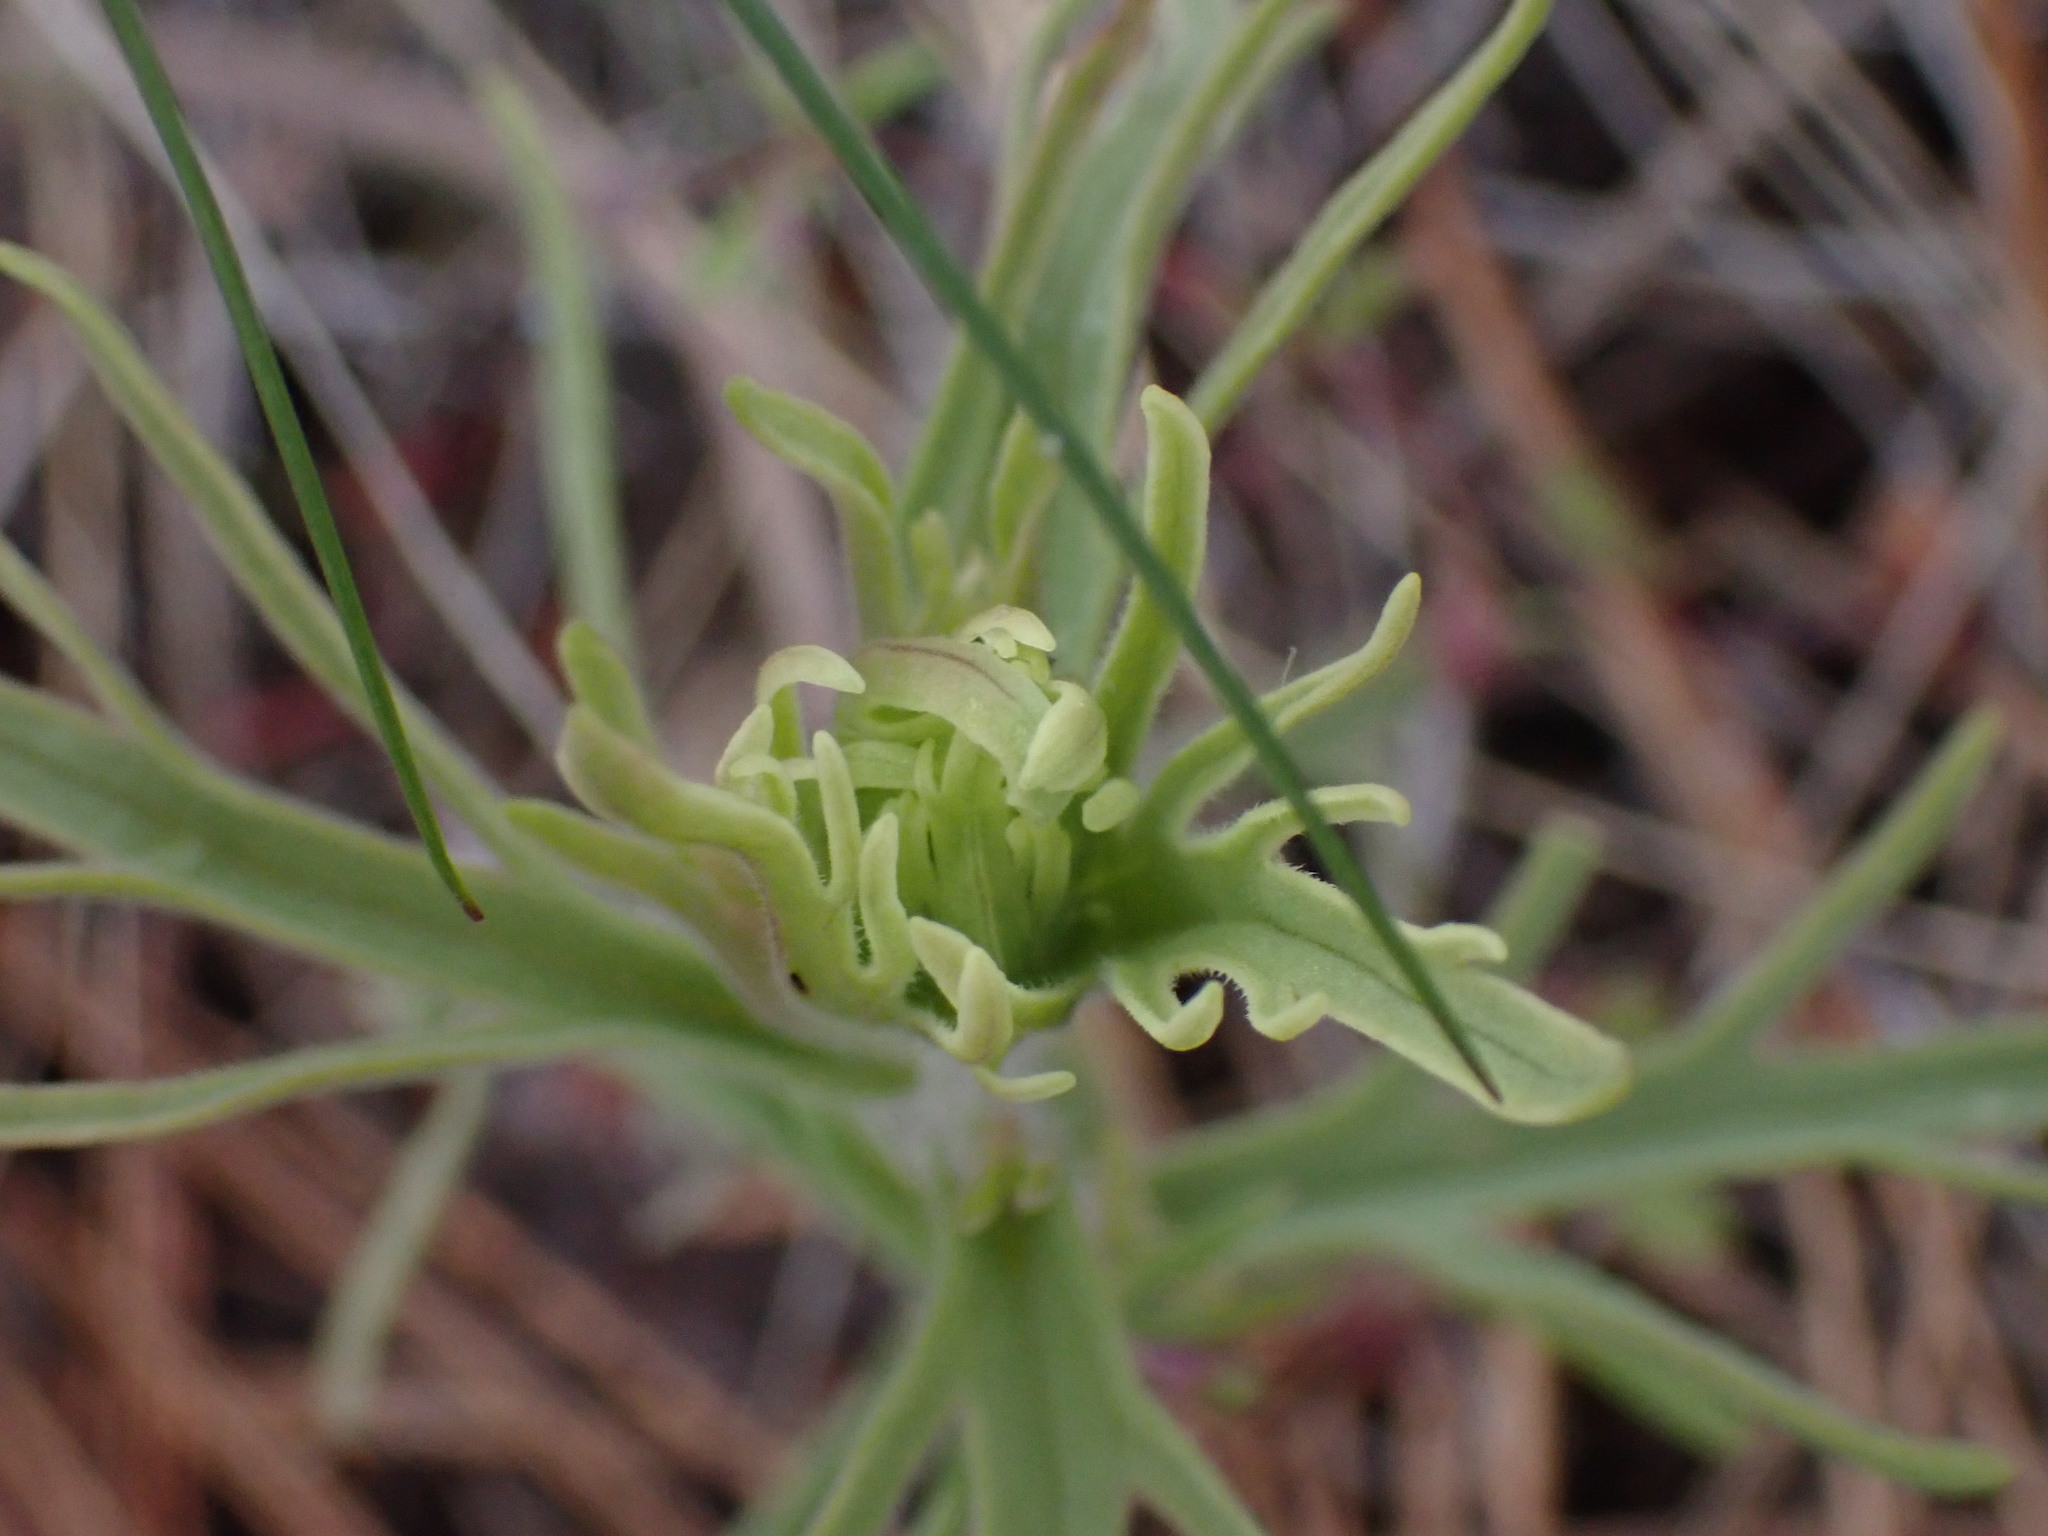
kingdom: Plantae
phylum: Tracheophyta
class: Magnoliopsida
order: Lamiales
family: Orobanchaceae
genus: Castilleja
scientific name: Castilleja thompsonii
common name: Thompson's paintbrush
